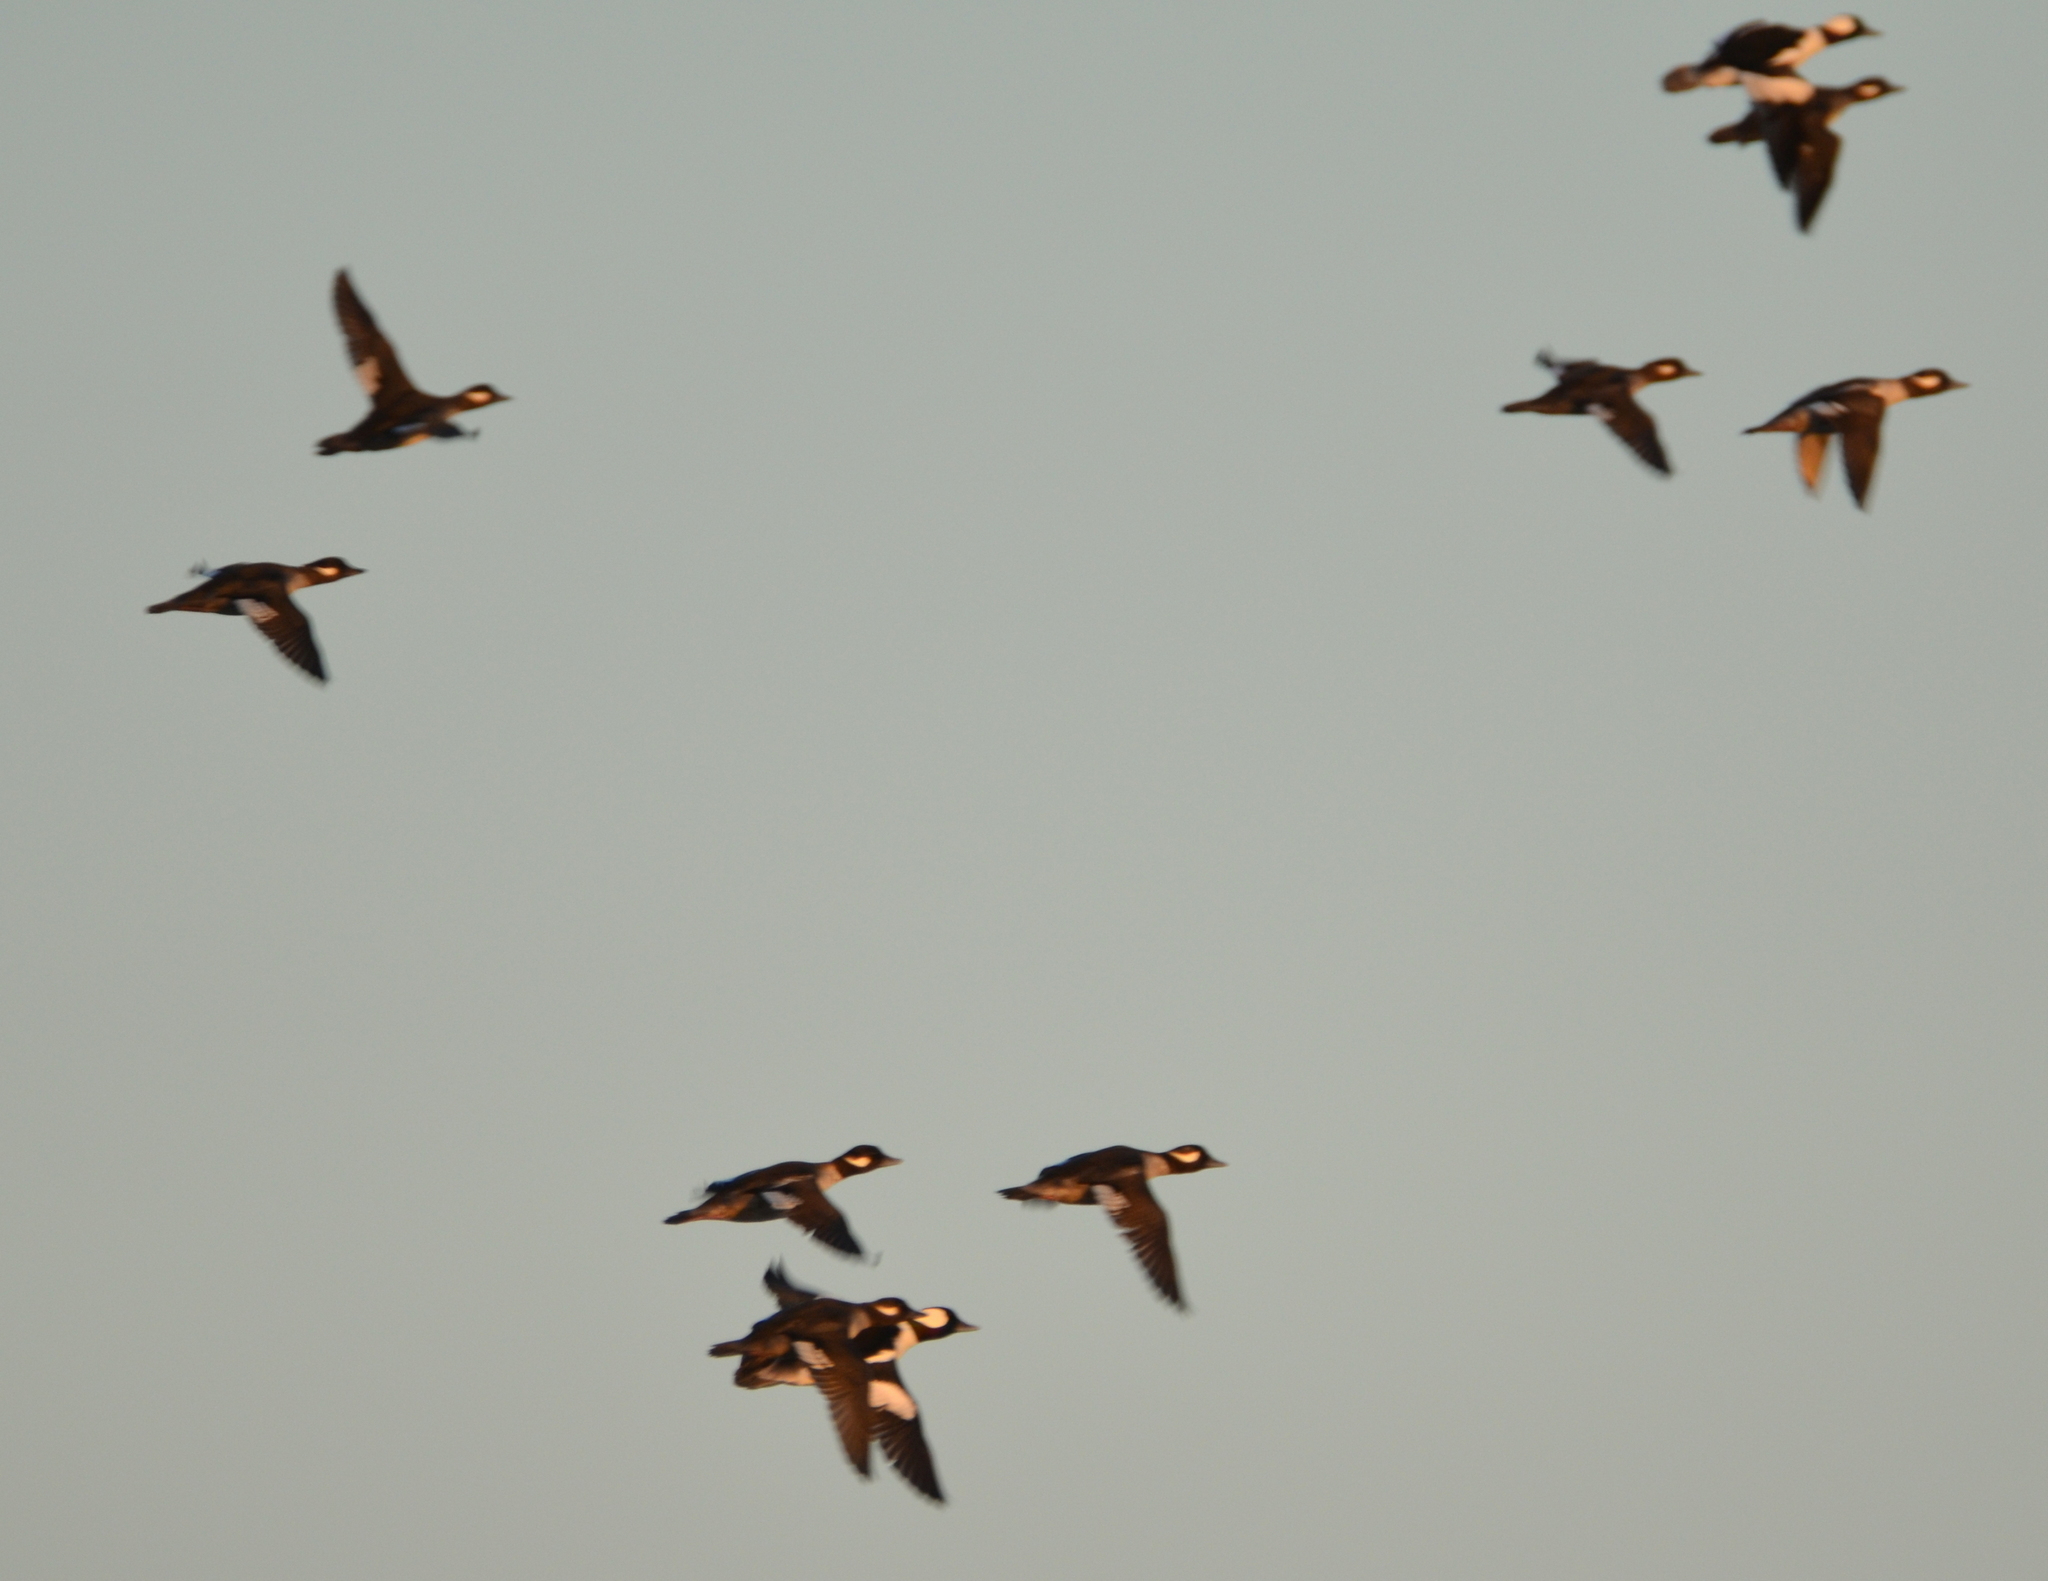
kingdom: Animalia
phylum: Chordata
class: Aves
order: Anseriformes
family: Anatidae
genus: Bucephala
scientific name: Bucephala albeola
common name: Bufflehead
